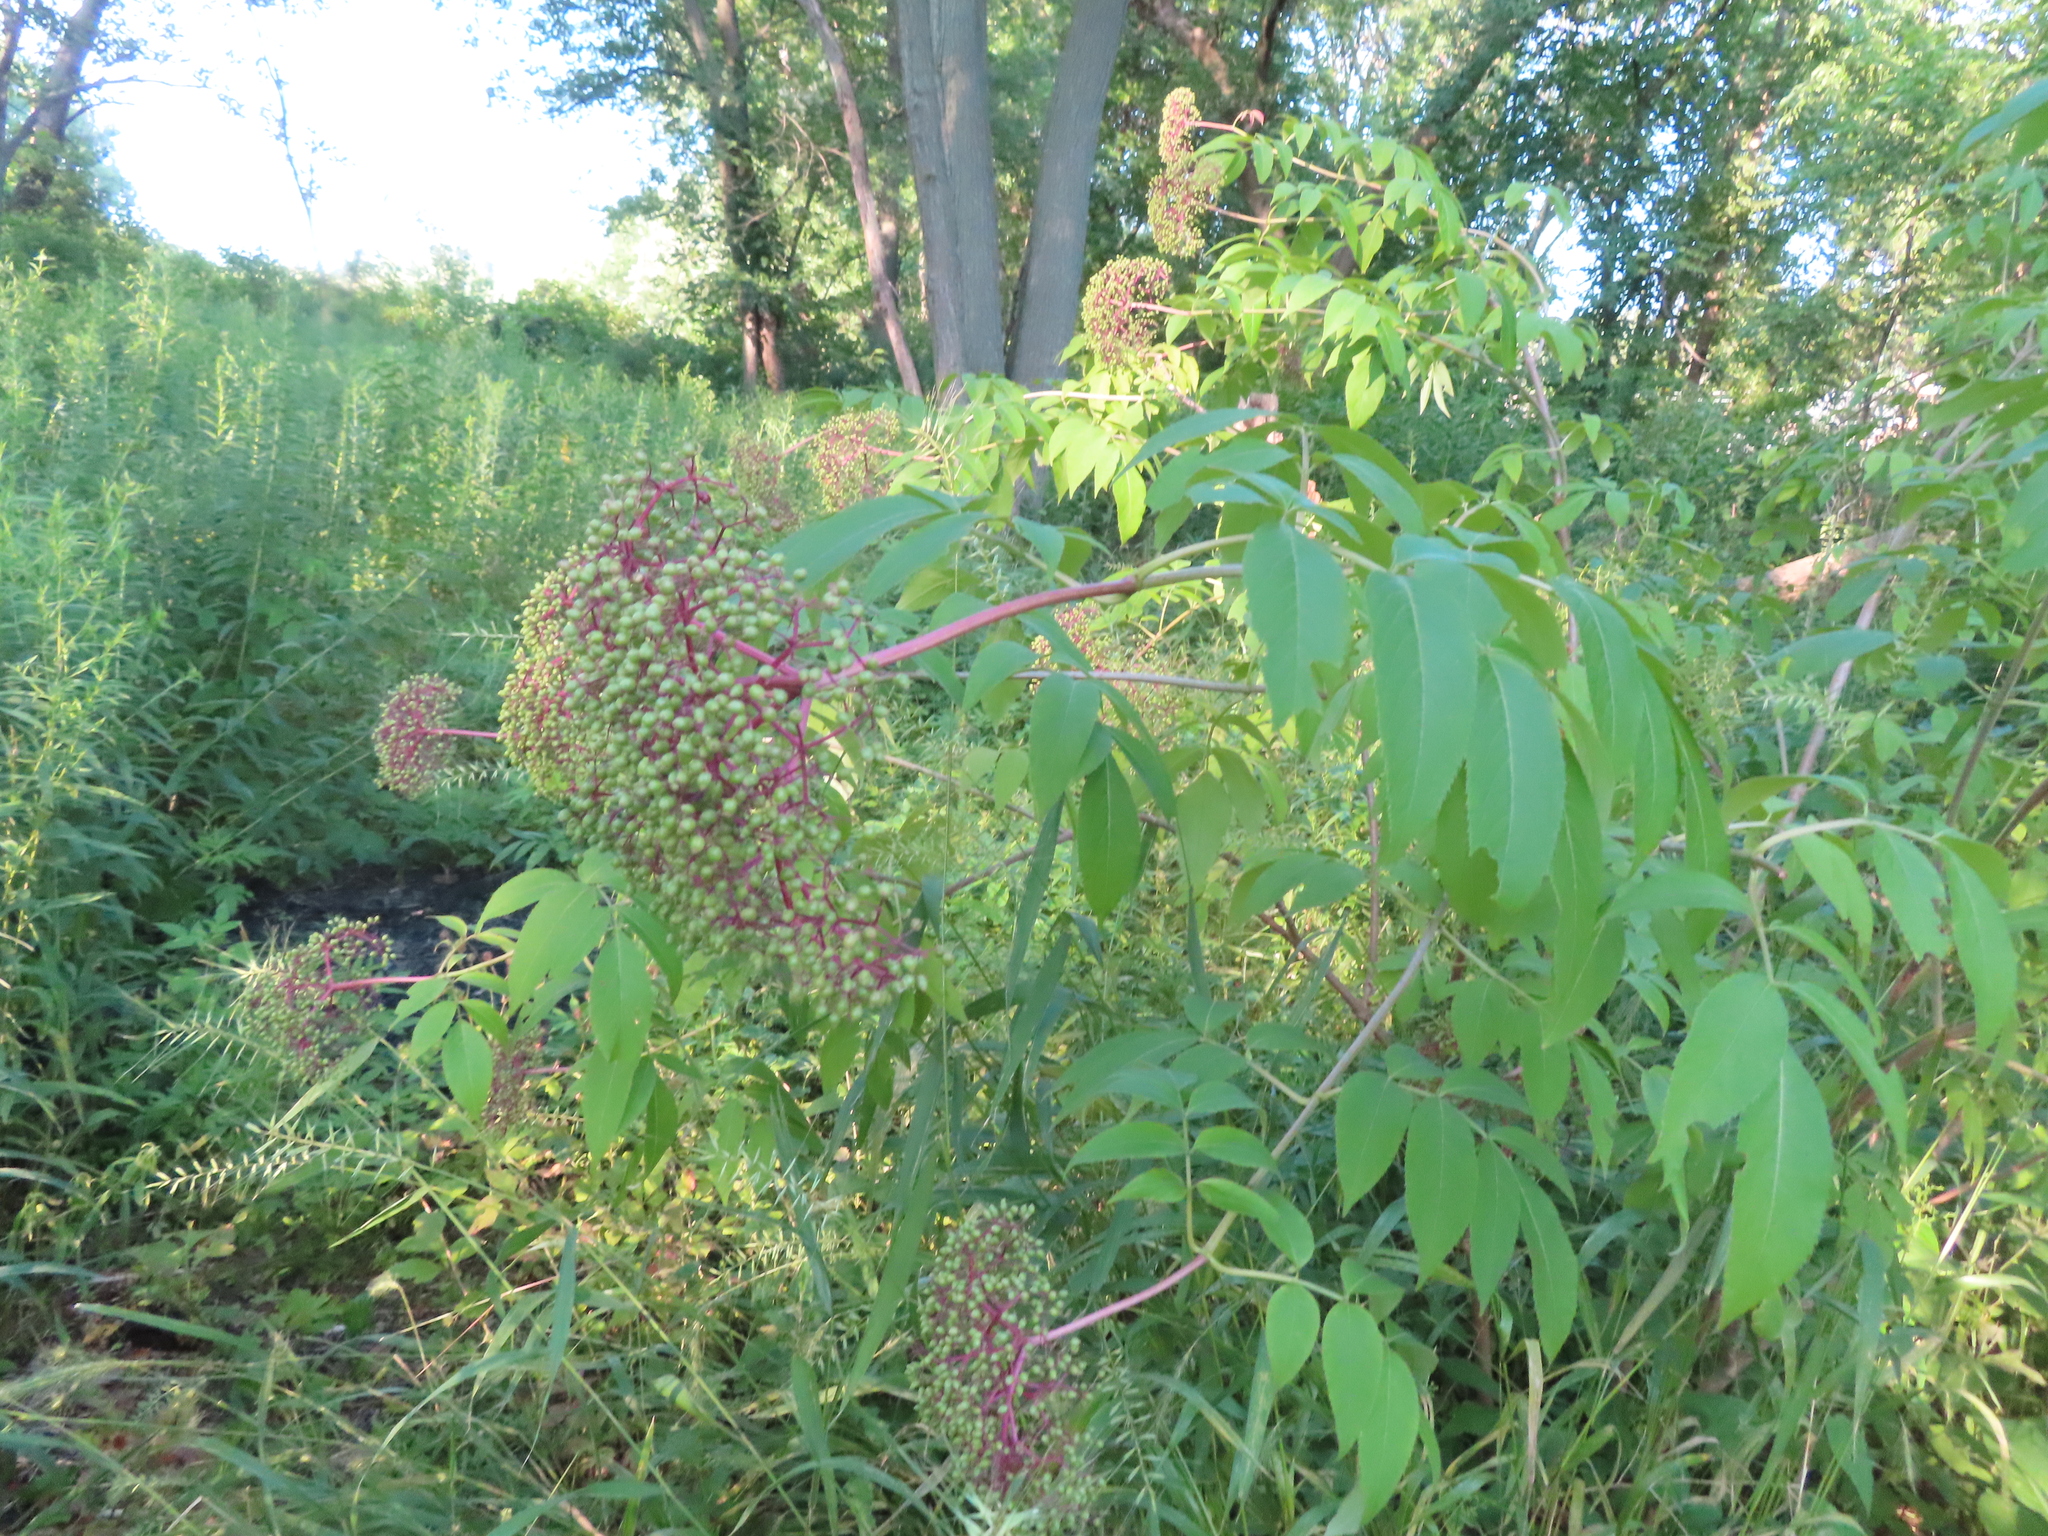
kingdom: Plantae
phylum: Tracheophyta
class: Magnoliopsida
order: Dipsacales
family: Viburnaceae
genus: Sambucus
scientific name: Sambucus canadensis
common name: American elder
